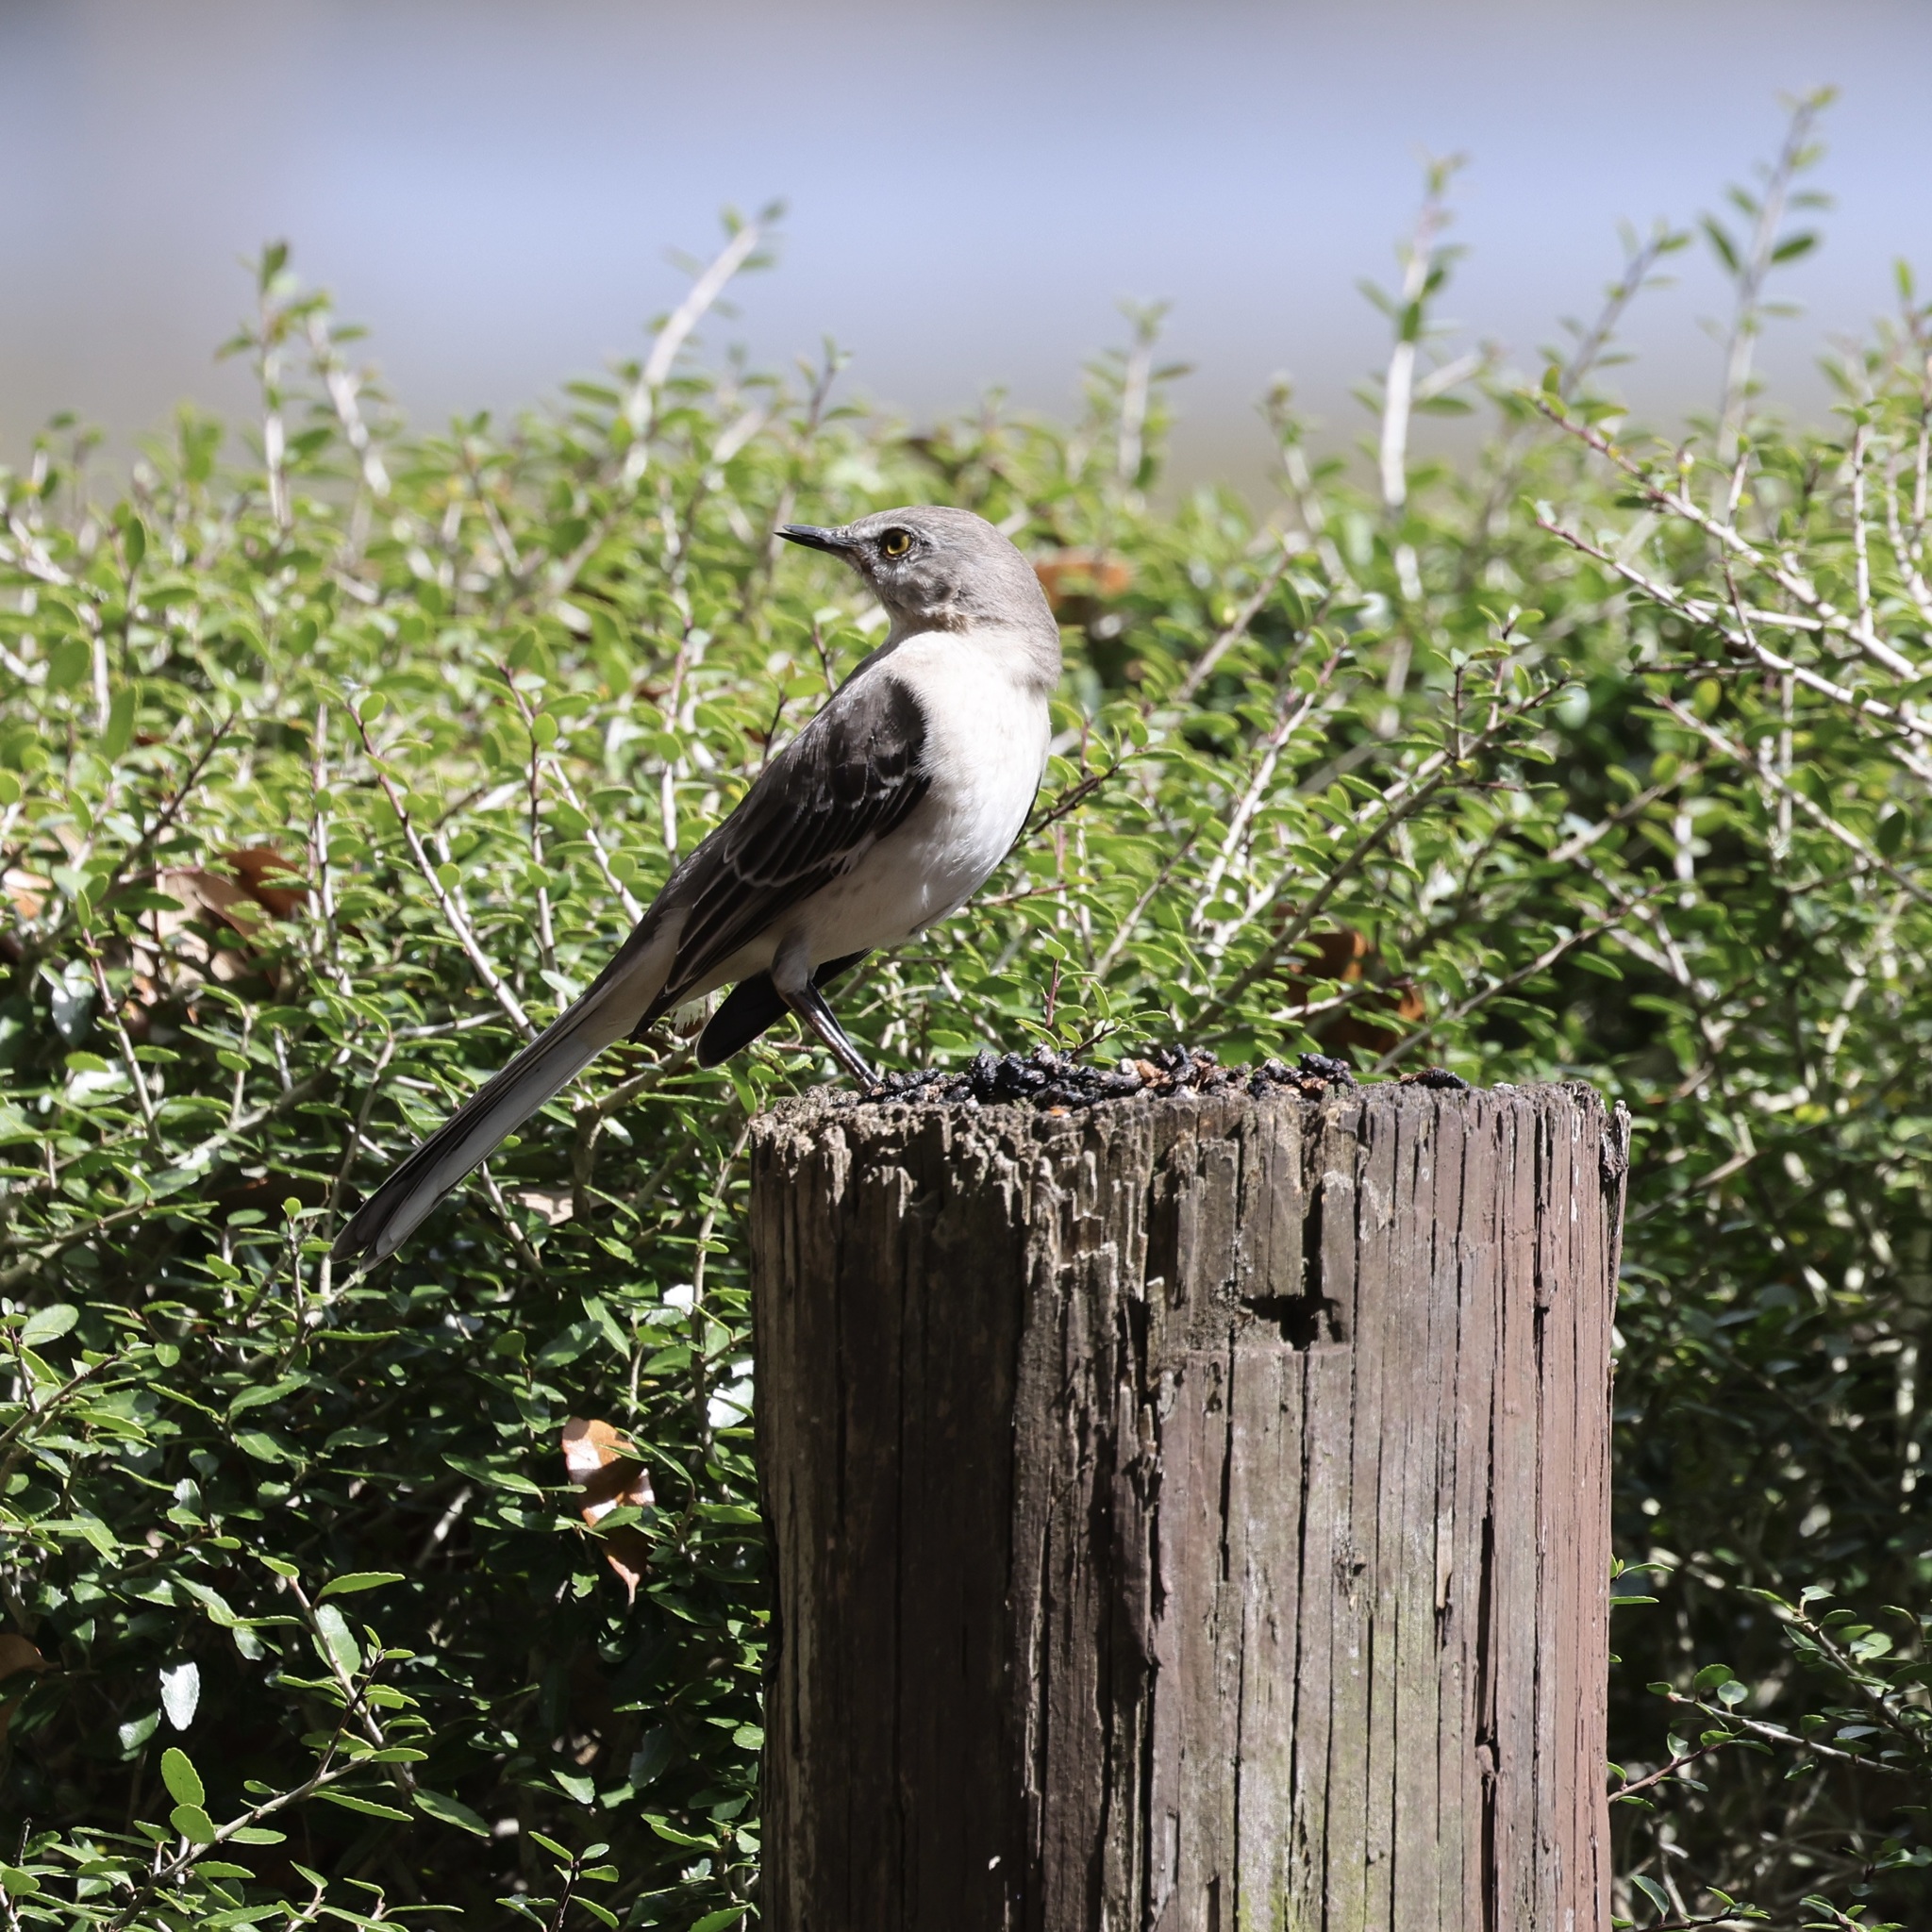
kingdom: Animalia
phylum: Chordata
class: Aves
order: Passeriformes
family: Mimidae
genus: Mimus
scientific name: Mimus polyglottos
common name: Northern mockingbird
